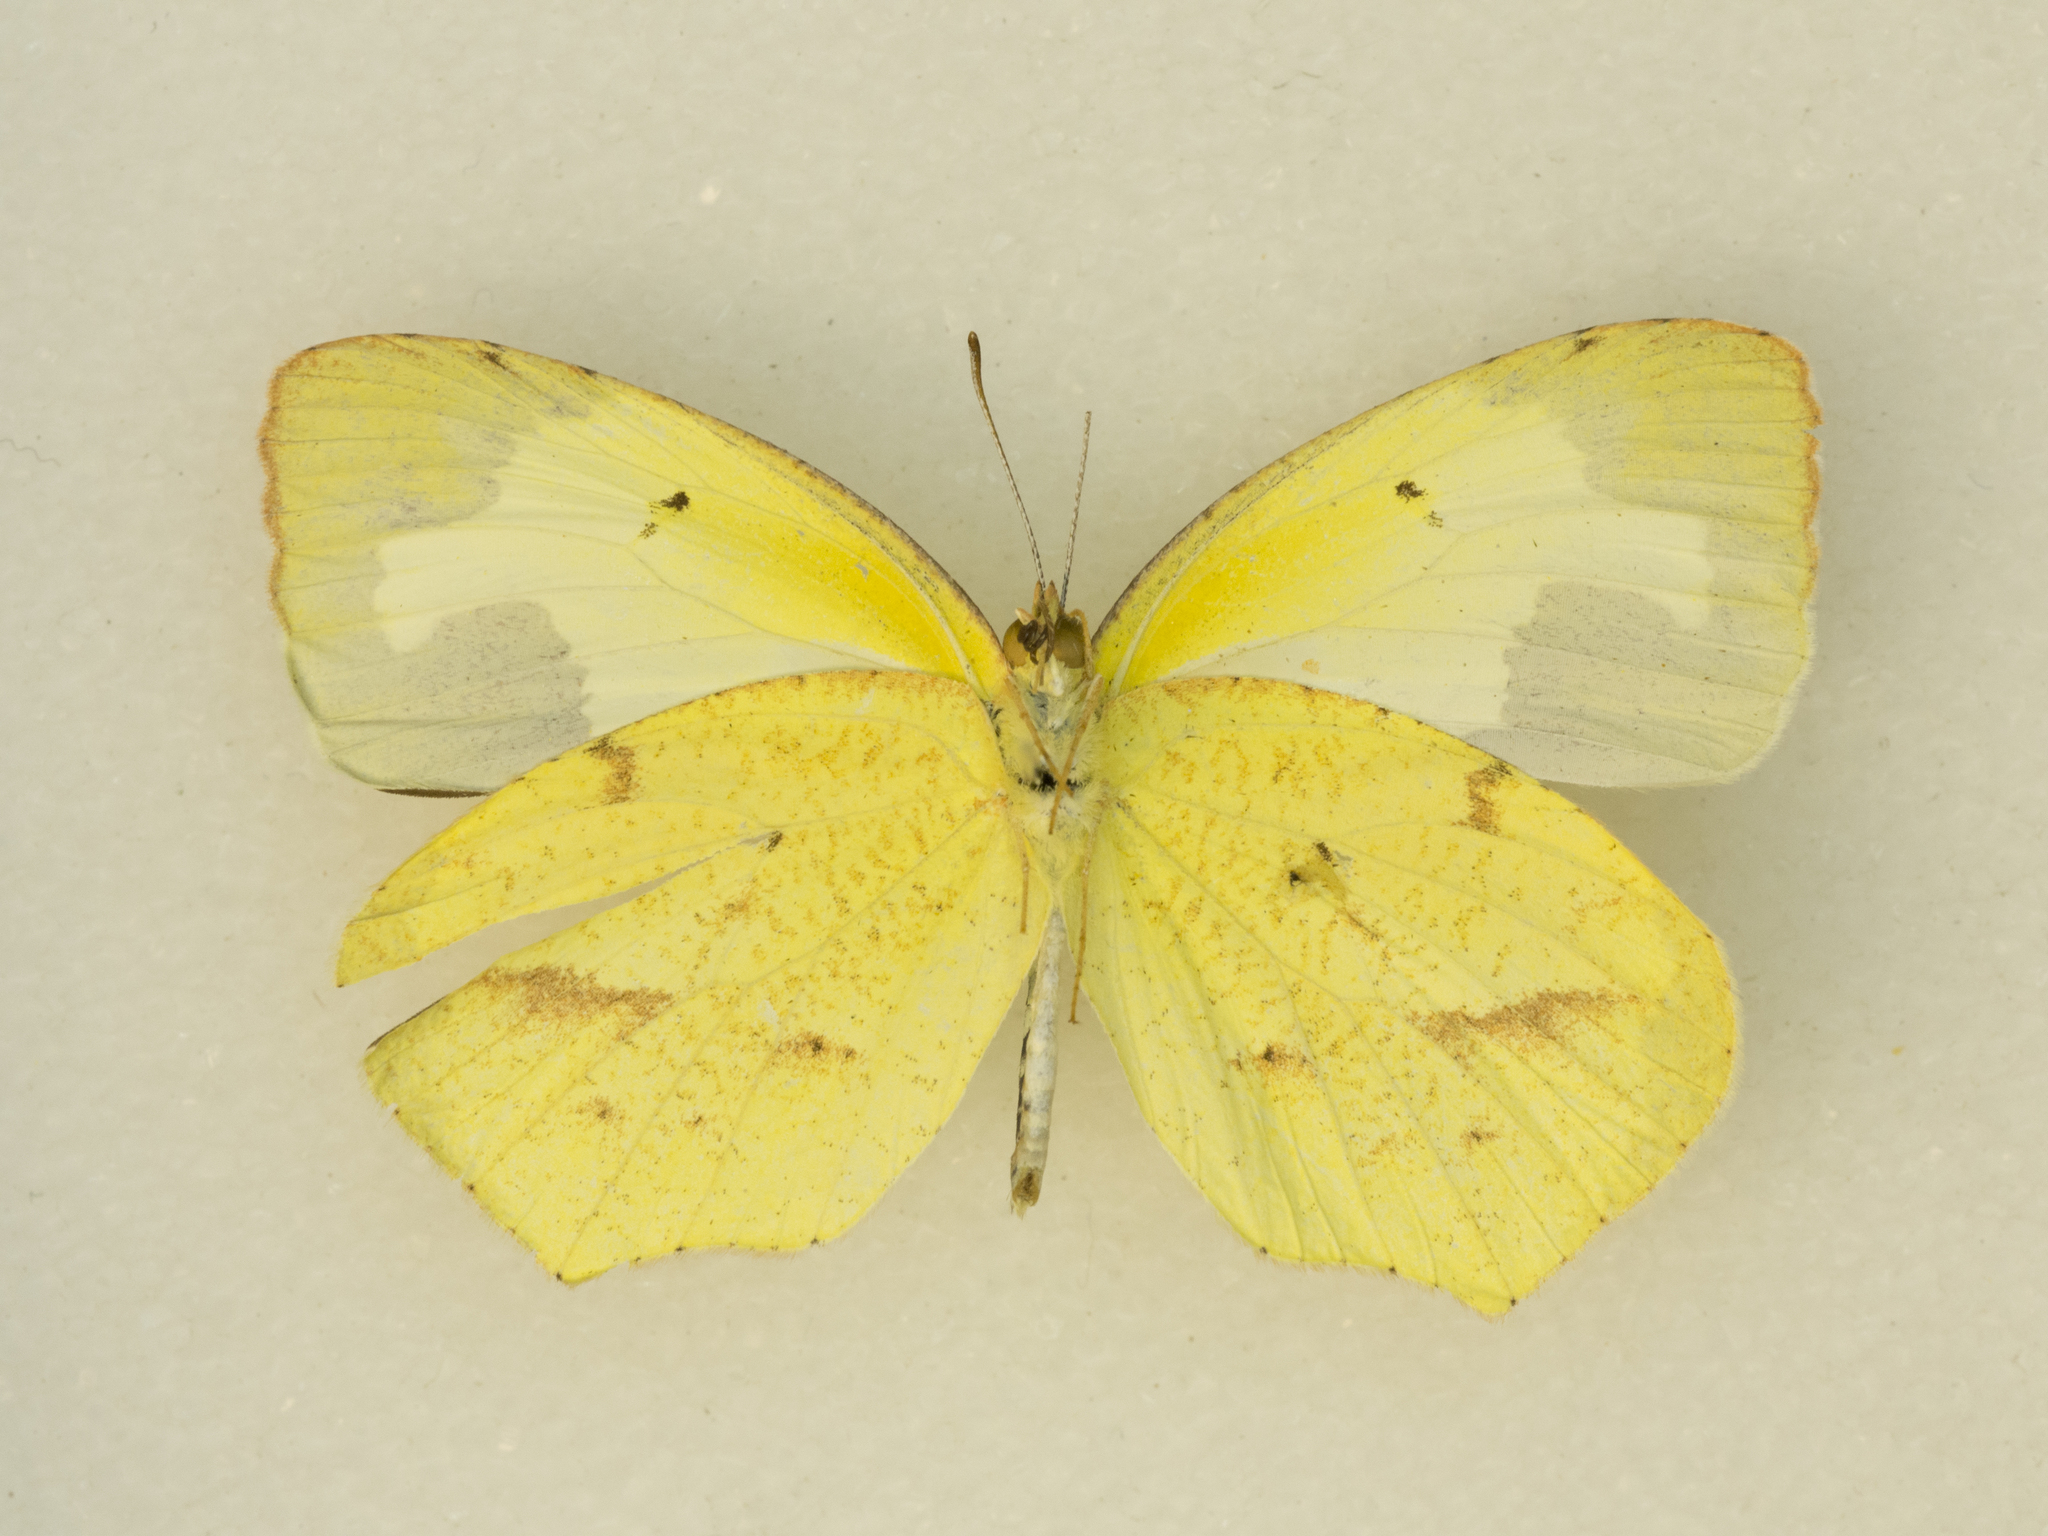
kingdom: Animalia
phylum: Arthropoda
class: Insecta
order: Lepidoptera
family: Pieridae
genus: Abaeis
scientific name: Abaeis mexicana
